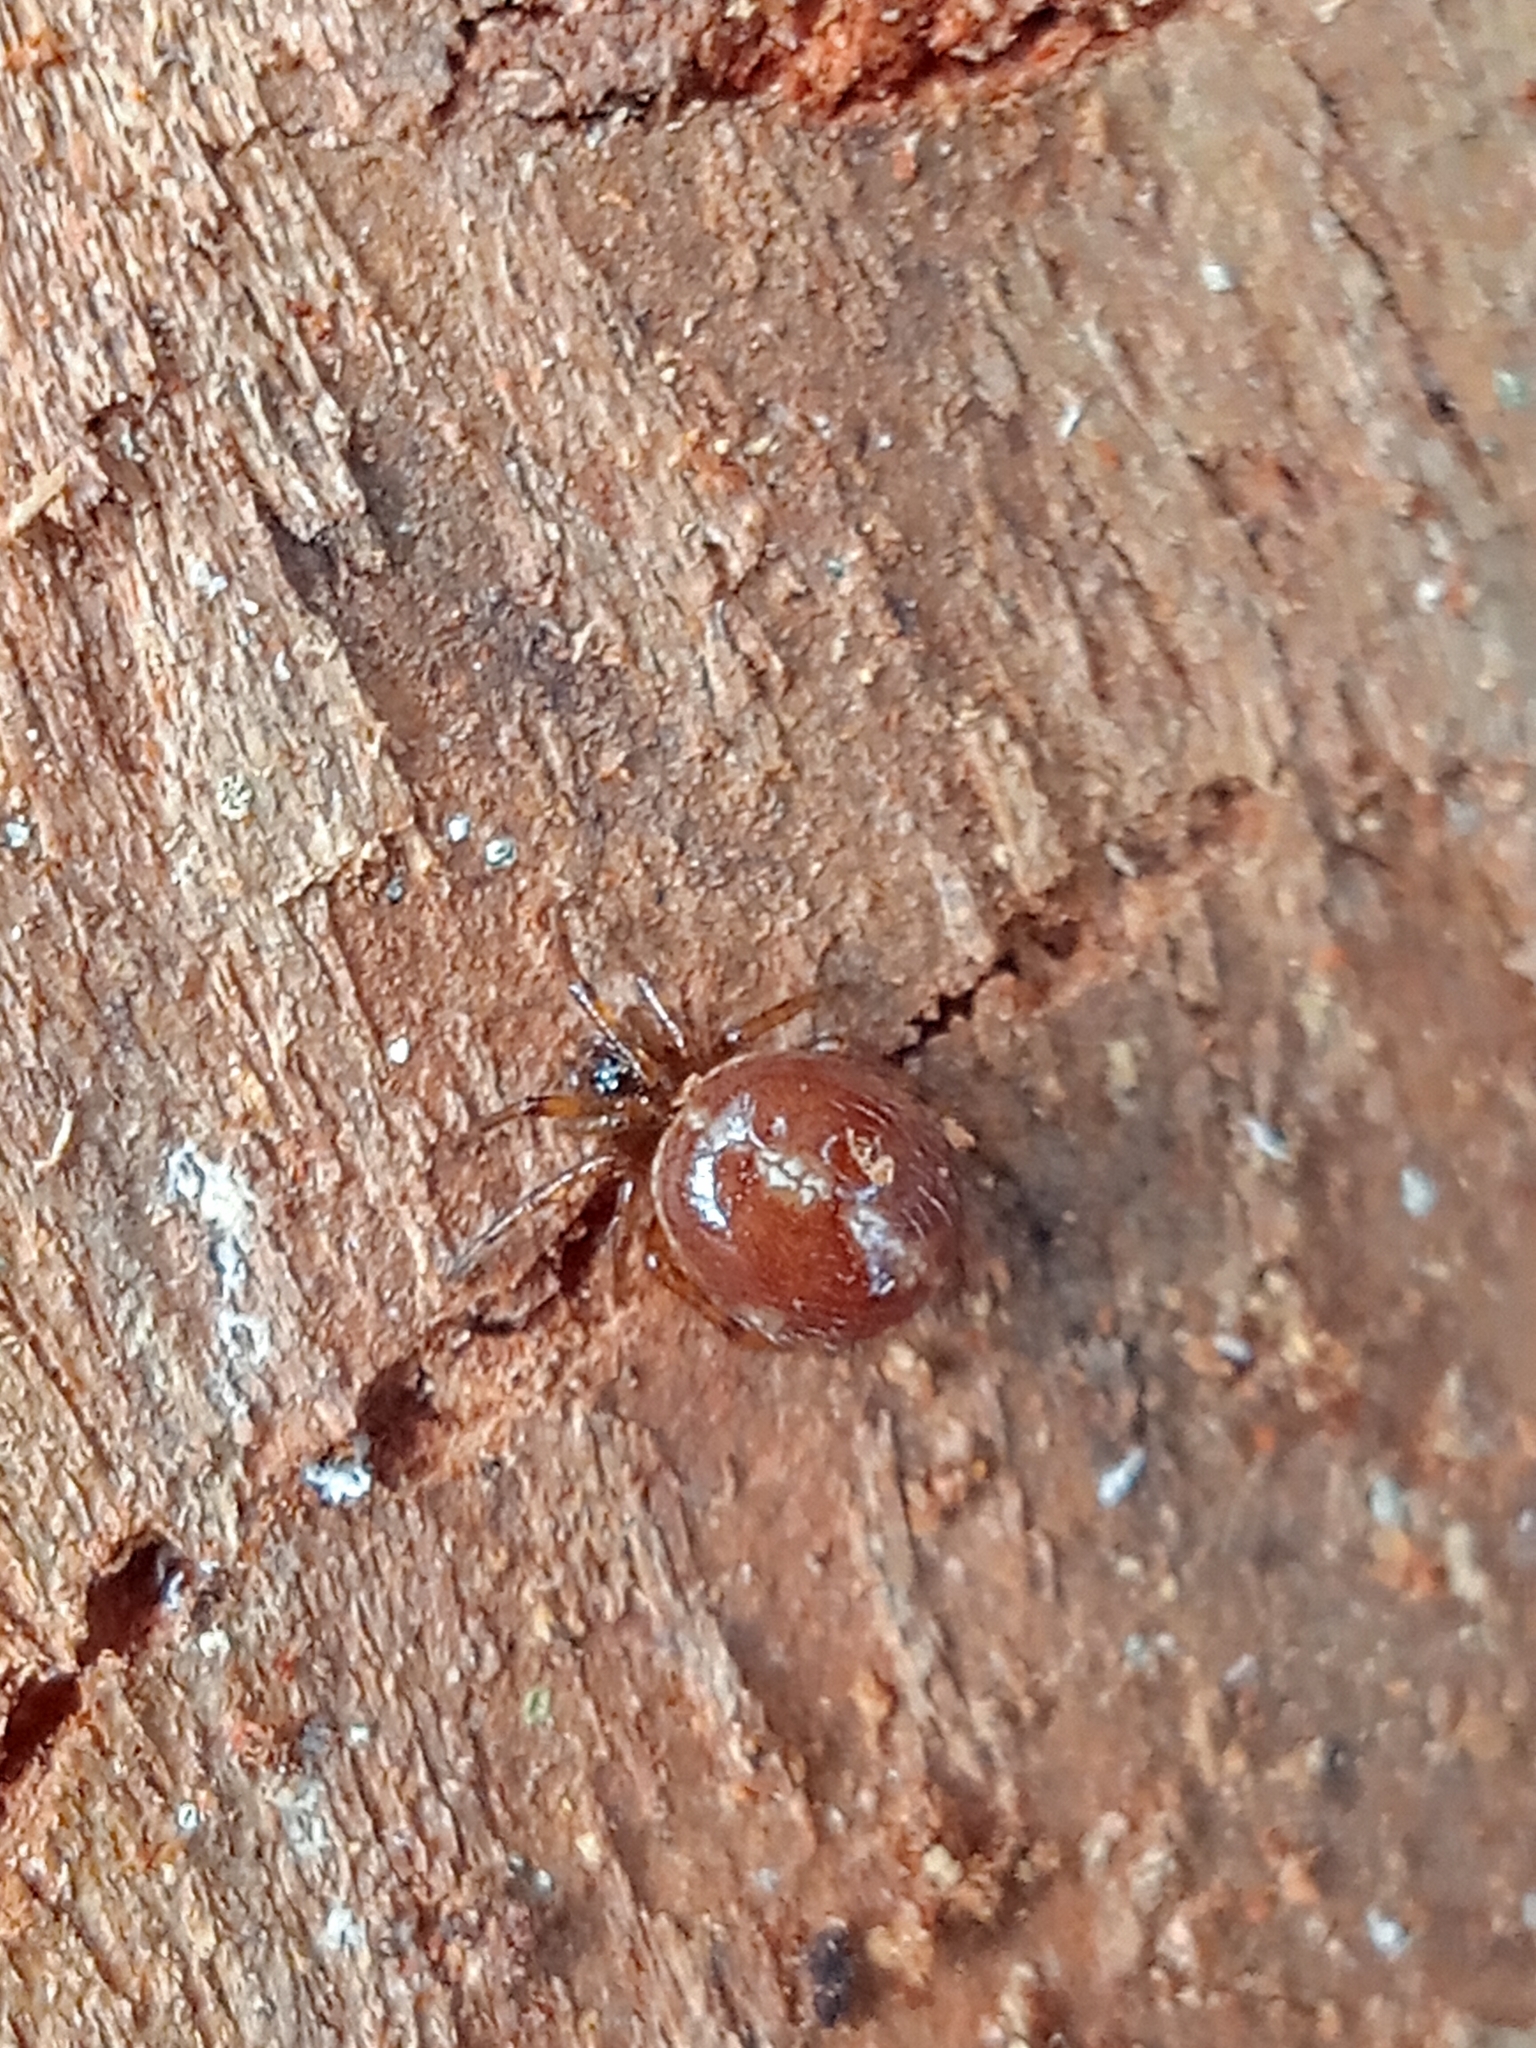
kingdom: Animalia
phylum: Arthropoda
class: Arachnida
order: Araneae
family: Theridiidae
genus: Steatoda
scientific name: Steatoda bipunctata
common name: False widow
